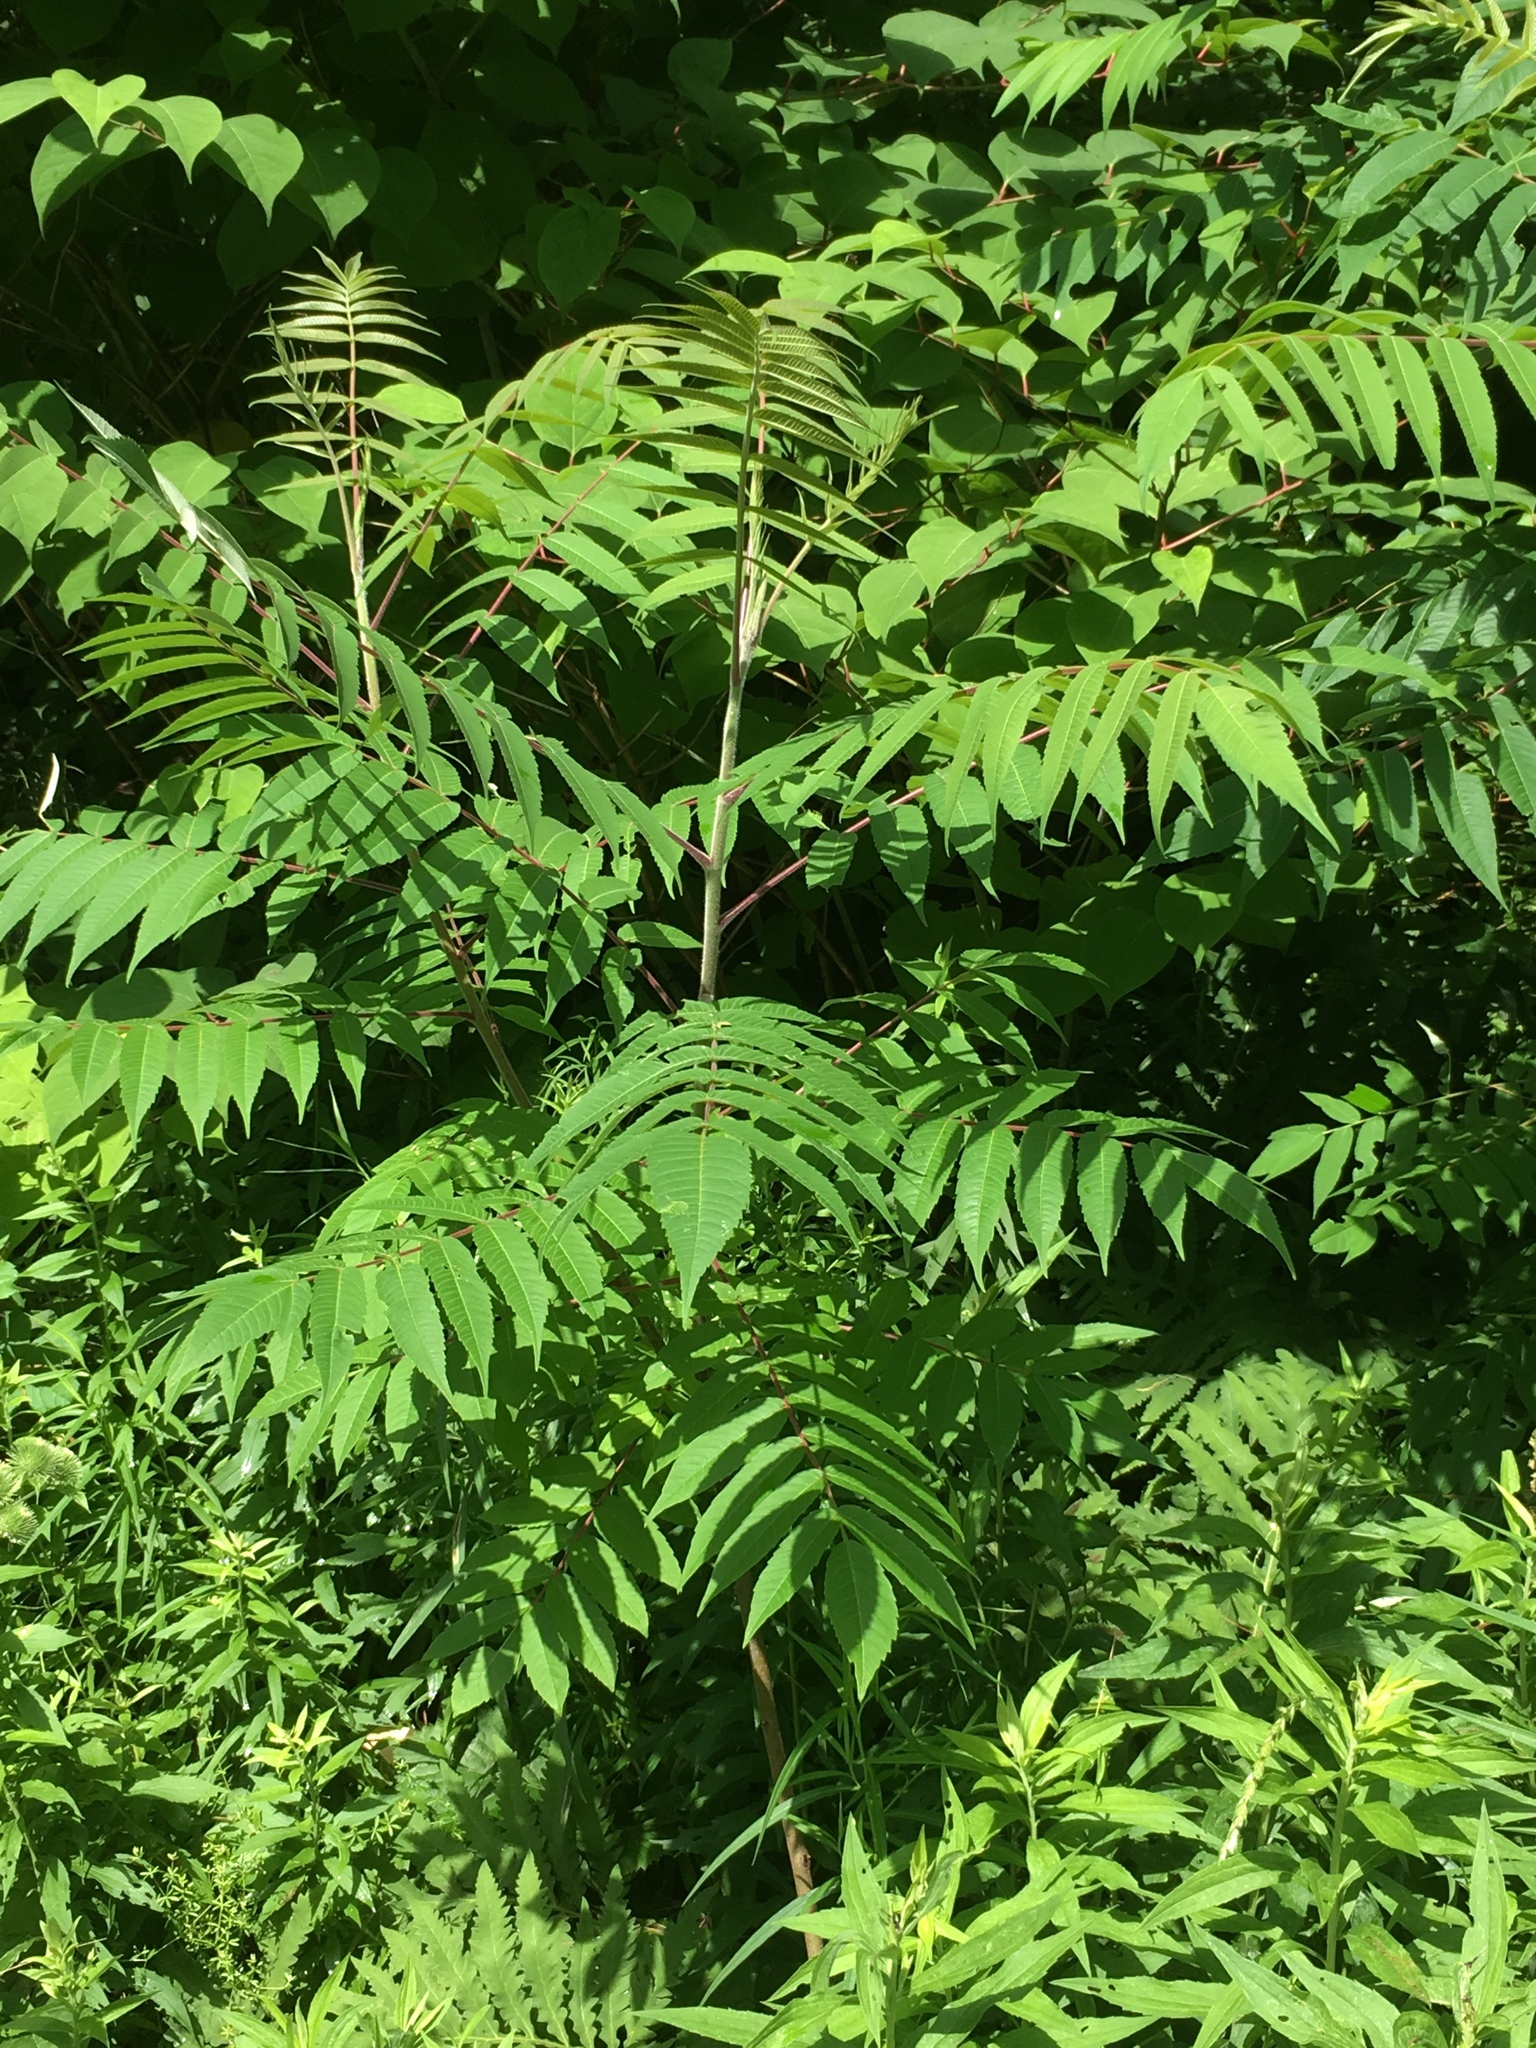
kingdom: Plantae
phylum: Tracheophyta
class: Magnoliopsida
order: Sapindales
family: Anacardiaceae
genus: Rhus
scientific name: Rhus typhina
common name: Staghorn sumac
